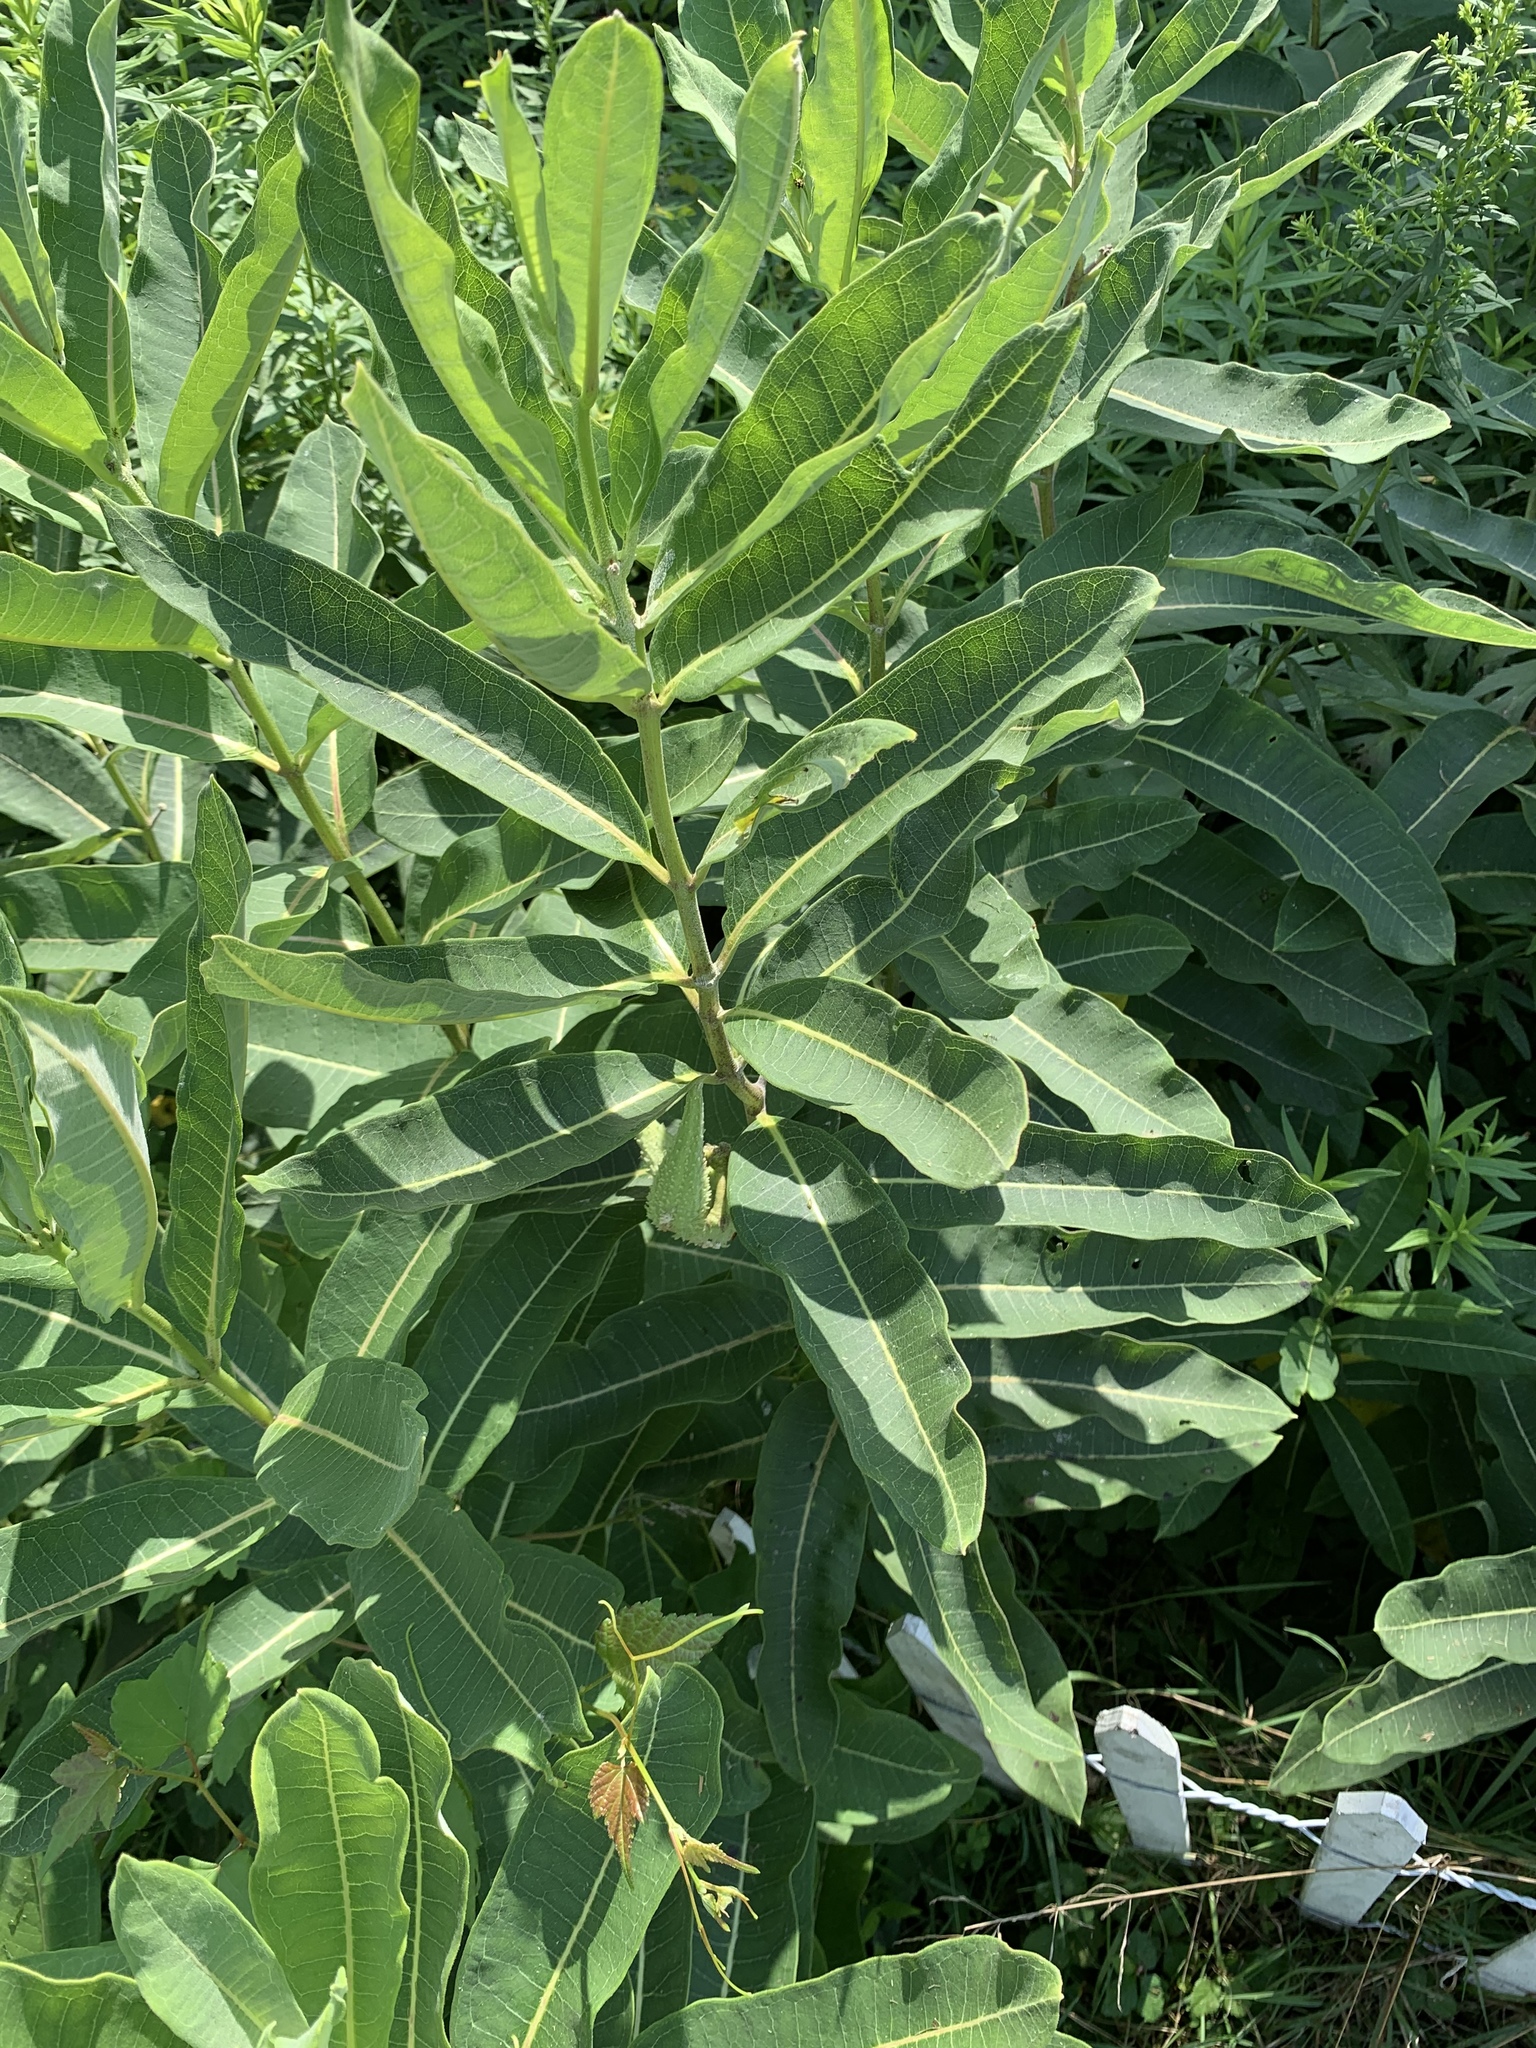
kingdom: Plantae
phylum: Tracheophyta
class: Magnoliopsida
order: Gentianales
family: Apocynaceae
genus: Asclepias
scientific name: Asclepias syriaca
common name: Common milkweed
